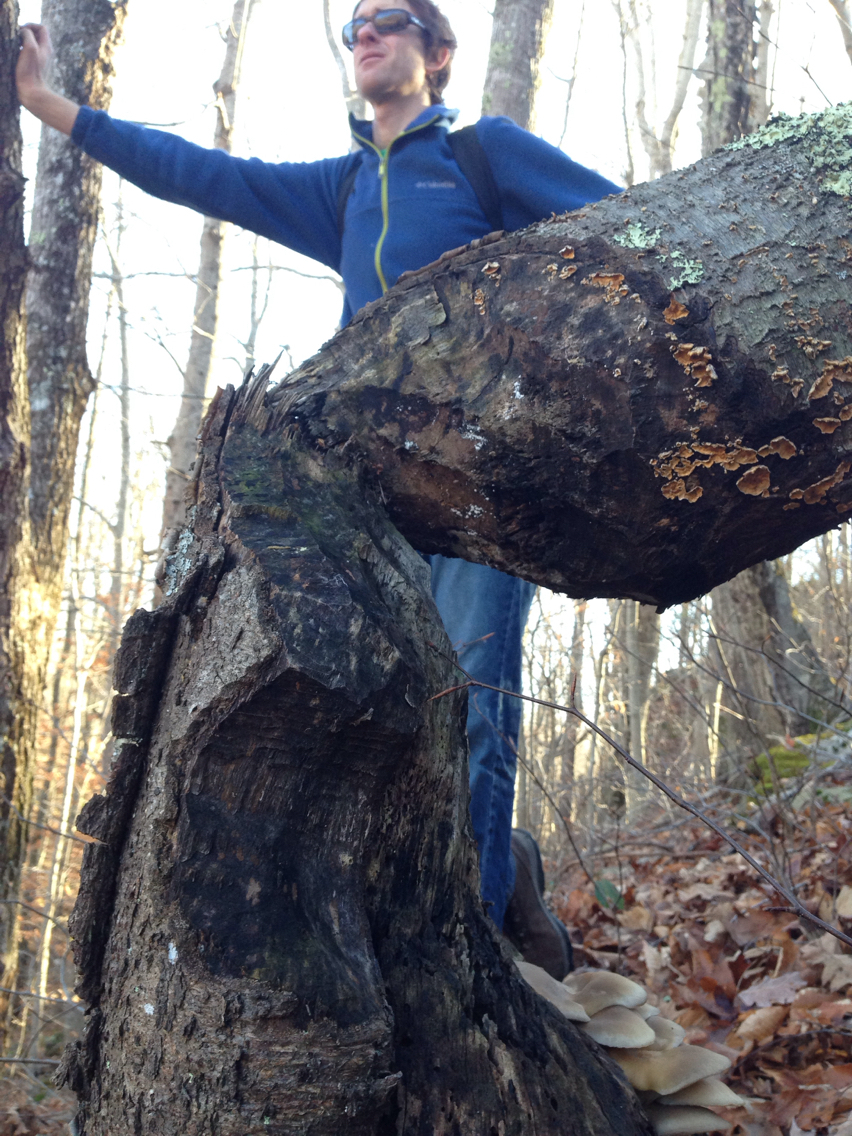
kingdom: Animalia
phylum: Chordata
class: Mammalia
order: Rodentia
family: Castoridae
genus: Castor
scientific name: Castor canadensis
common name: American beaver
